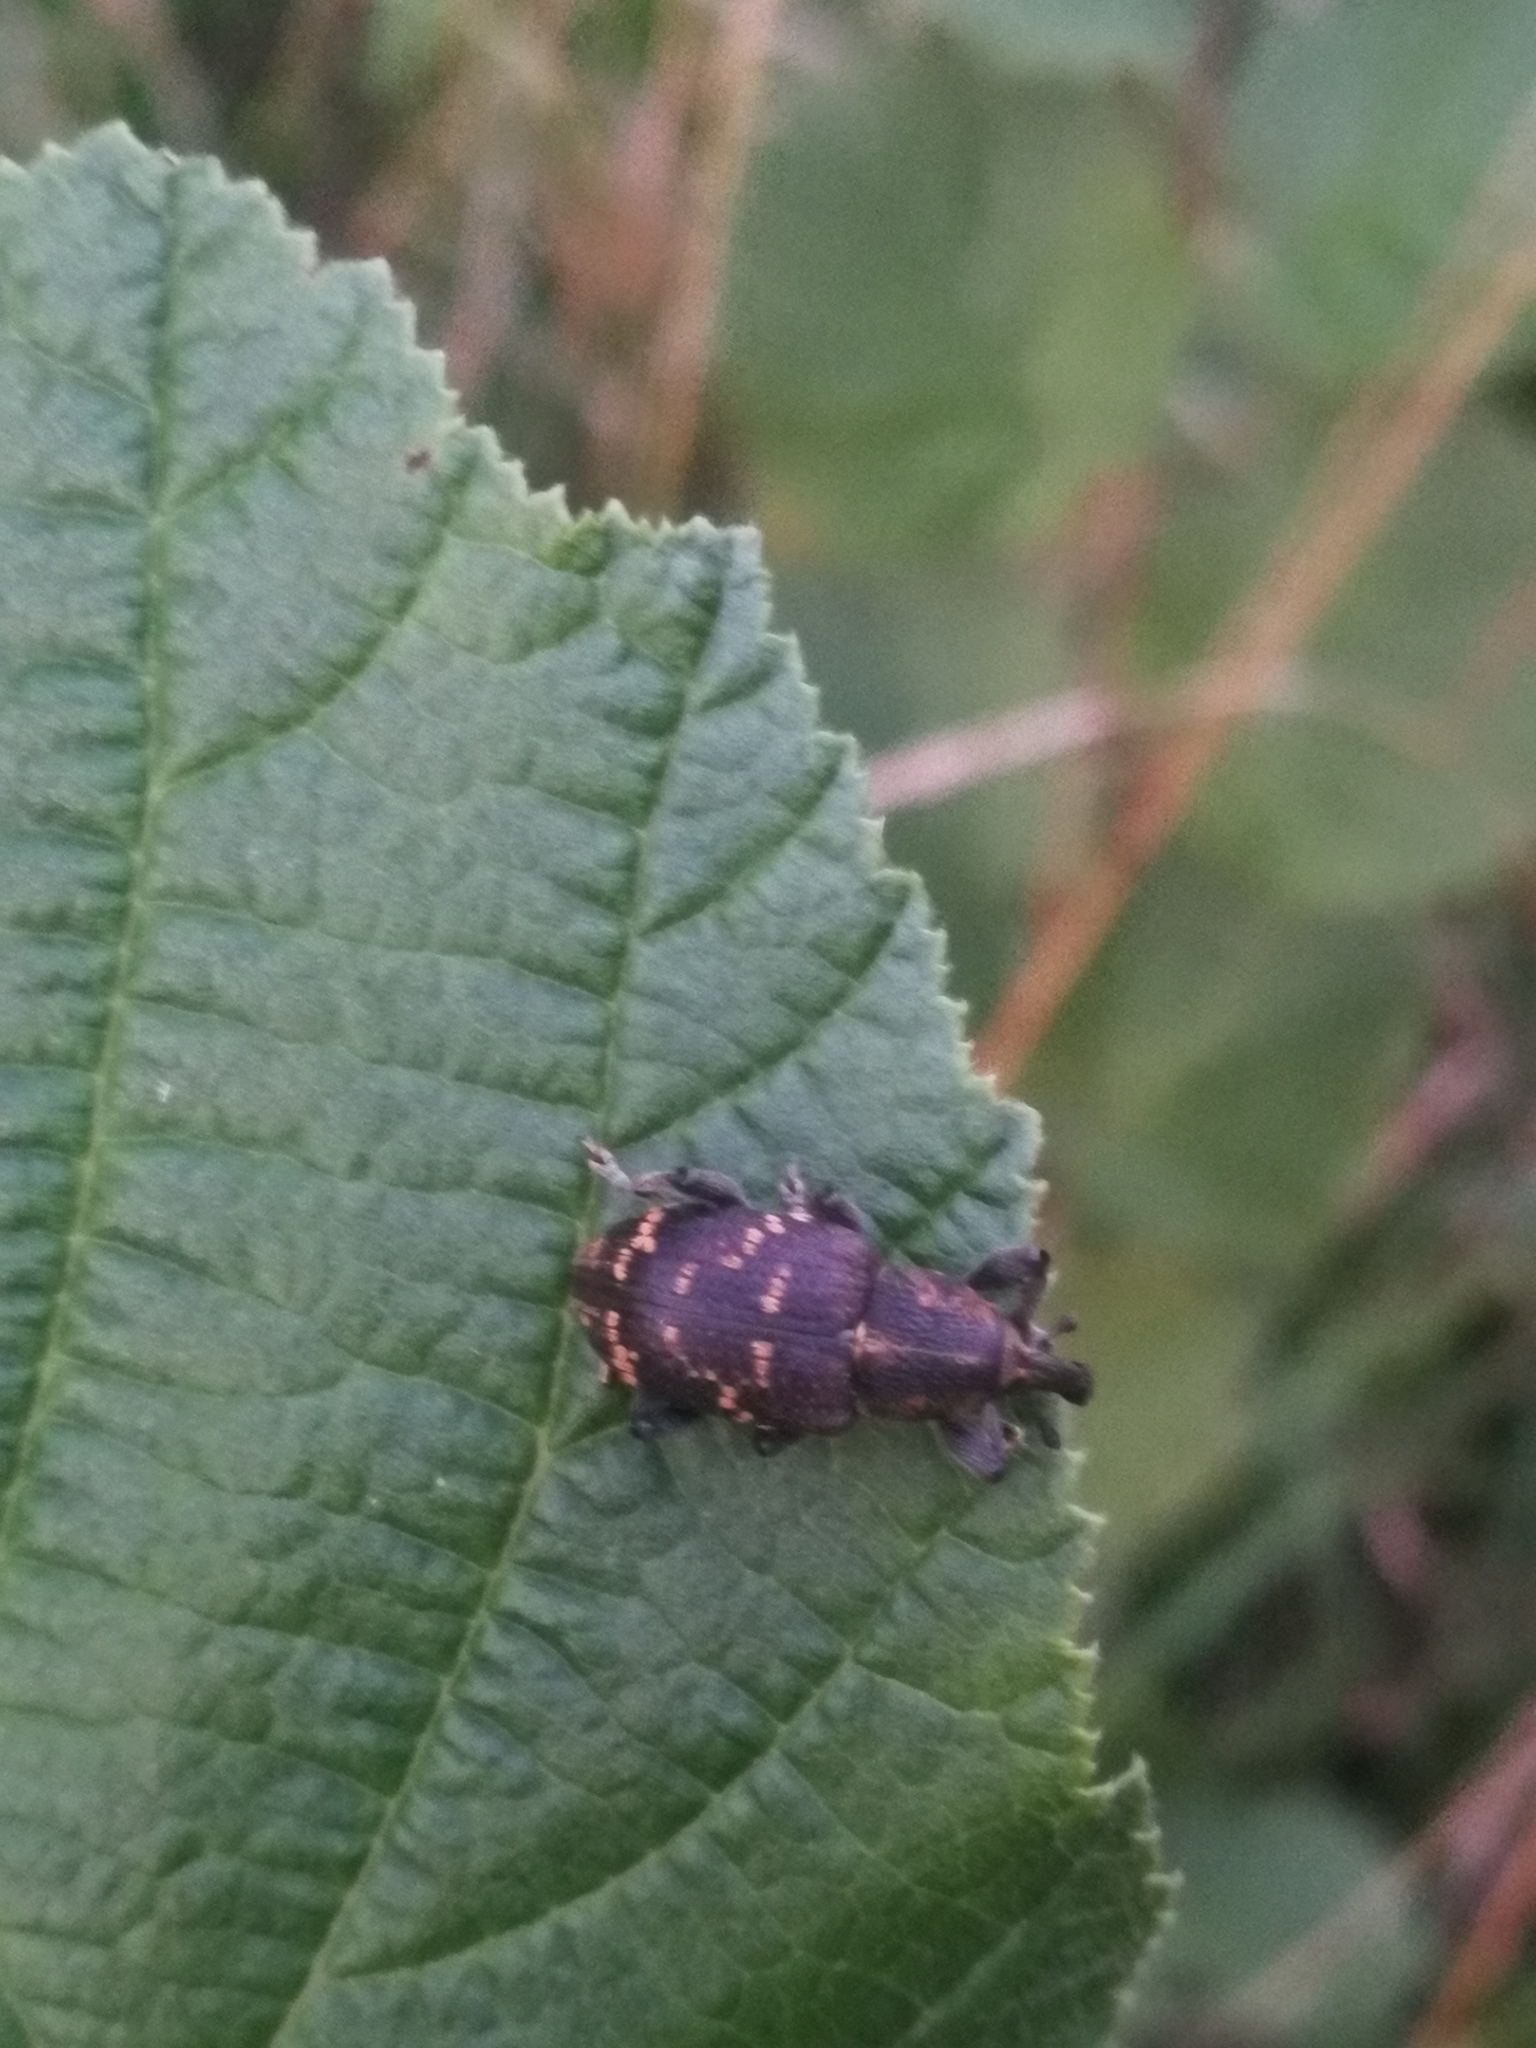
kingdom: Animalia
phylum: Arthropoda
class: Insecta
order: Coleoptera
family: Curculionidae
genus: Hylobius
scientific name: Hylobius abietis
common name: Large pine weevil
